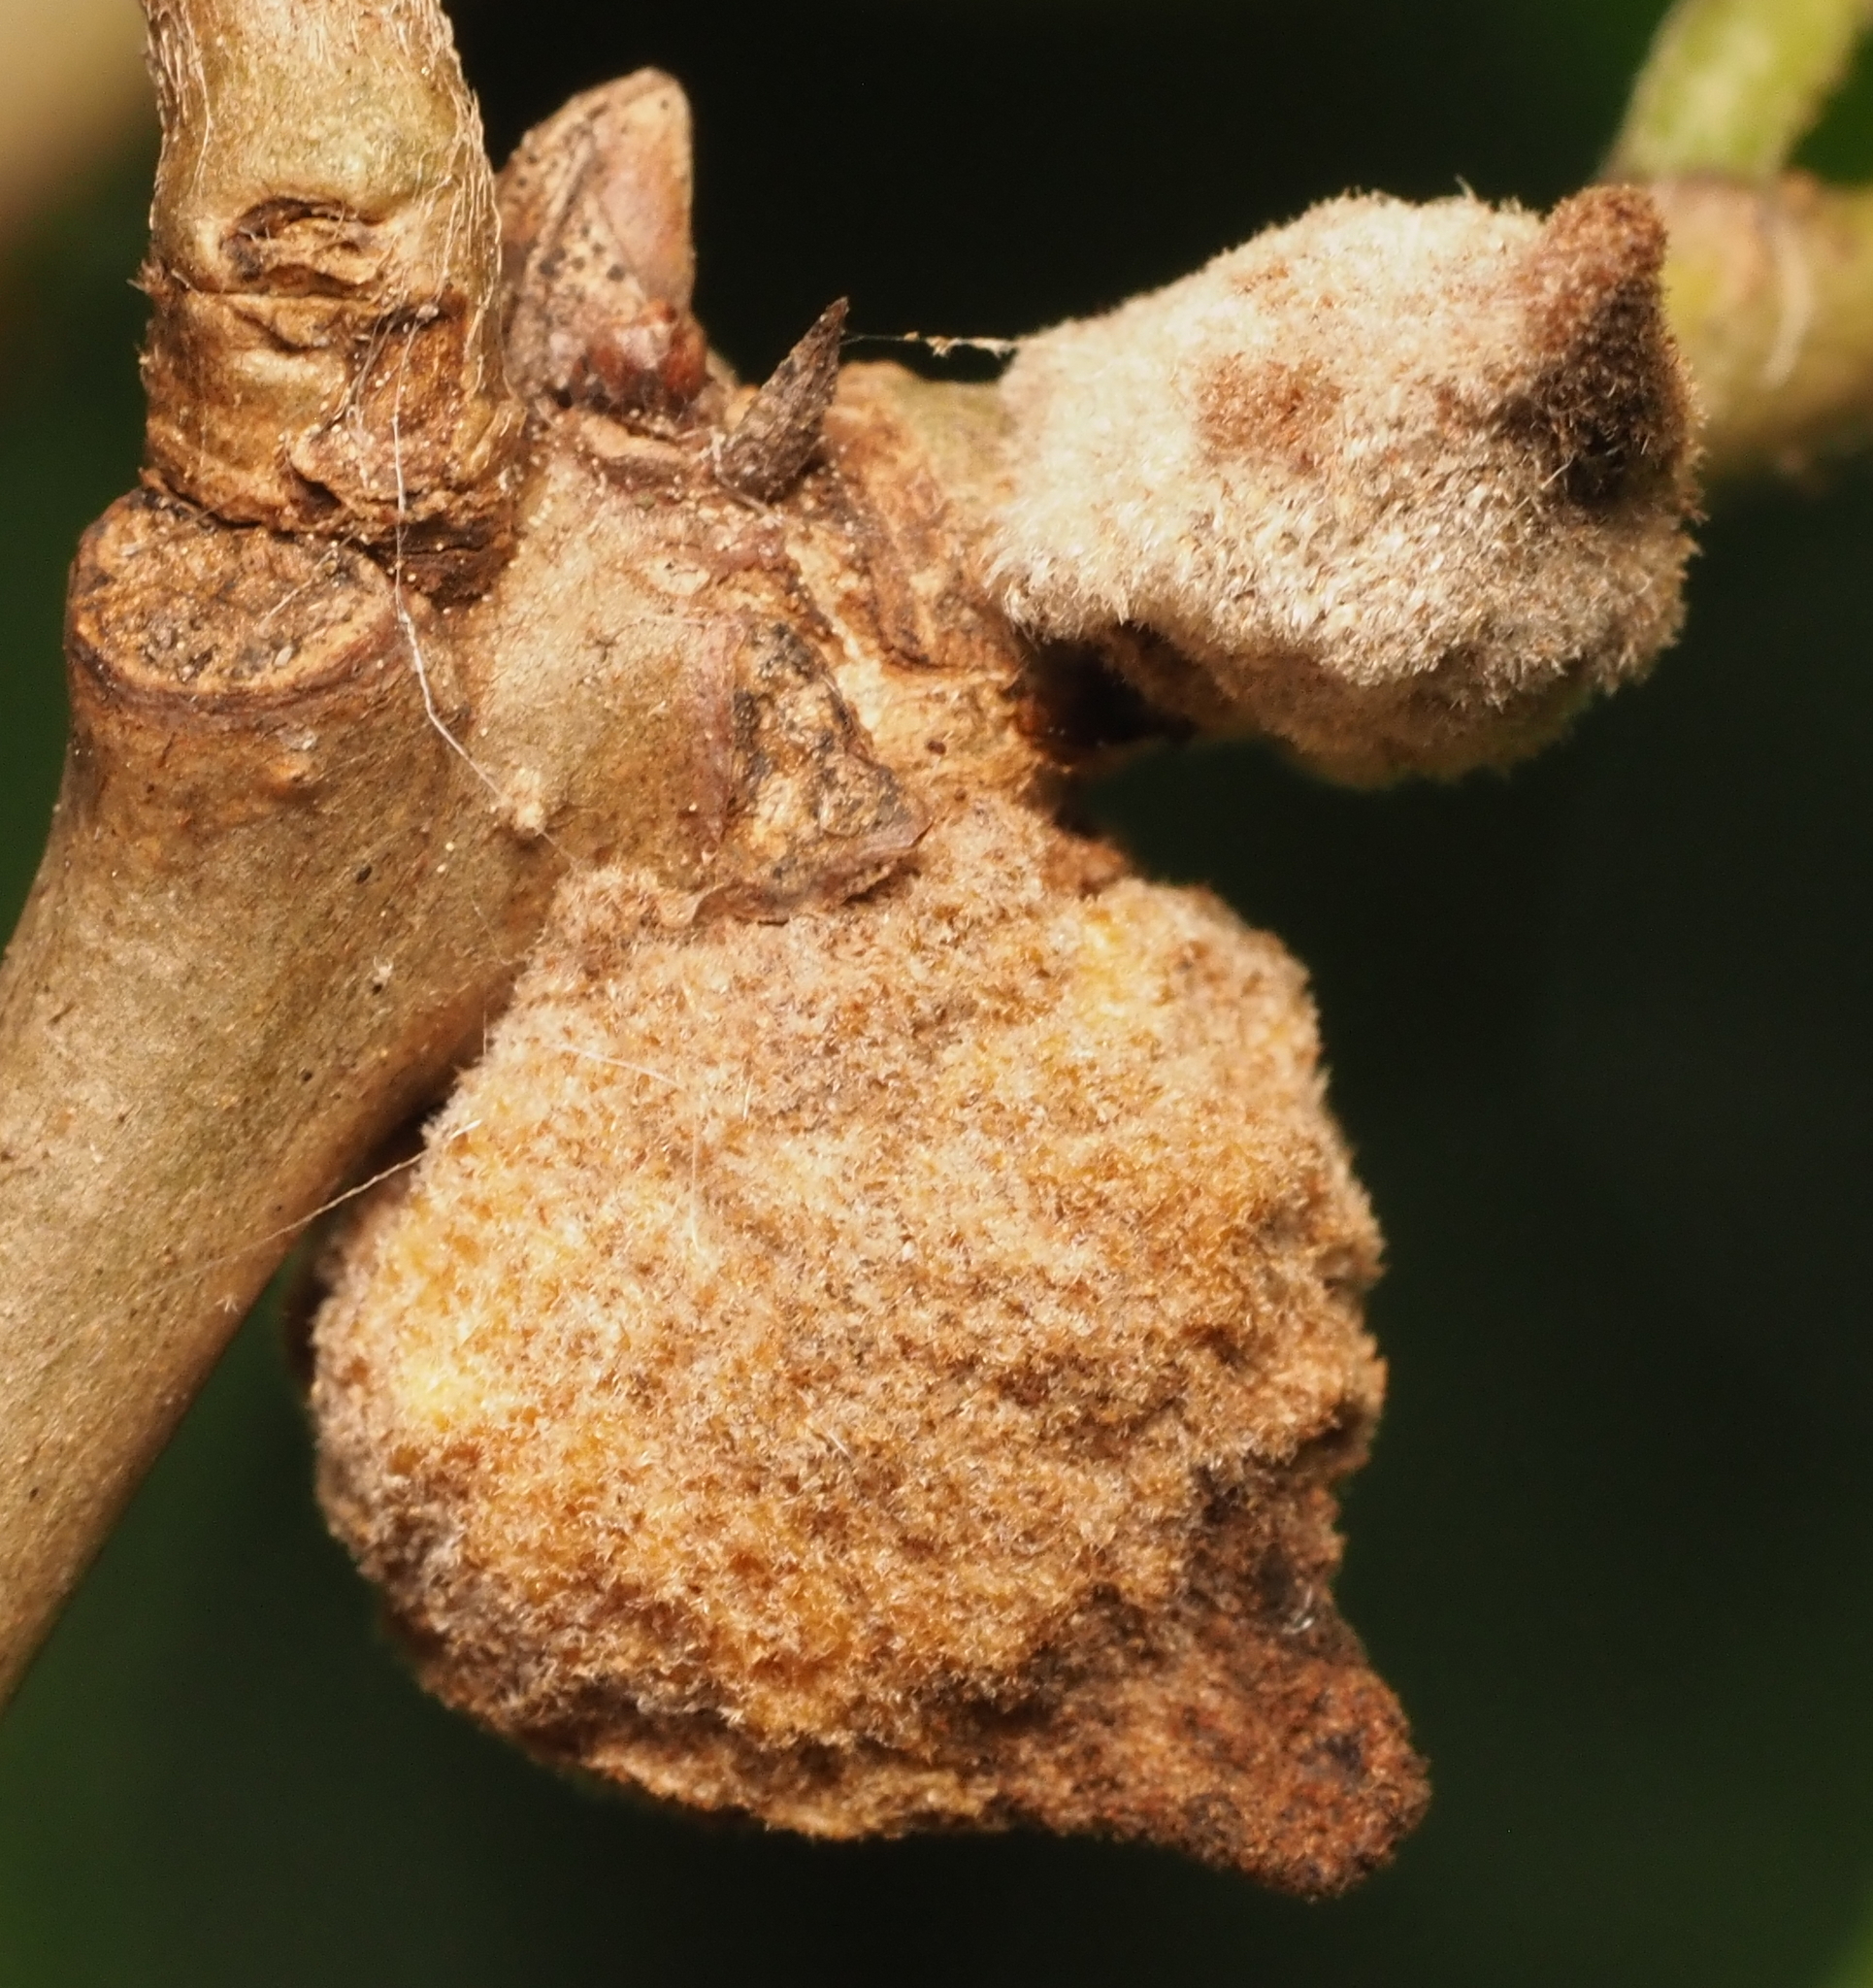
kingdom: Animalia
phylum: Arthropoda
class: Insecta
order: Hymenoptera
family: Cynipidae
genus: Disholcaspis
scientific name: Disholcaspis
